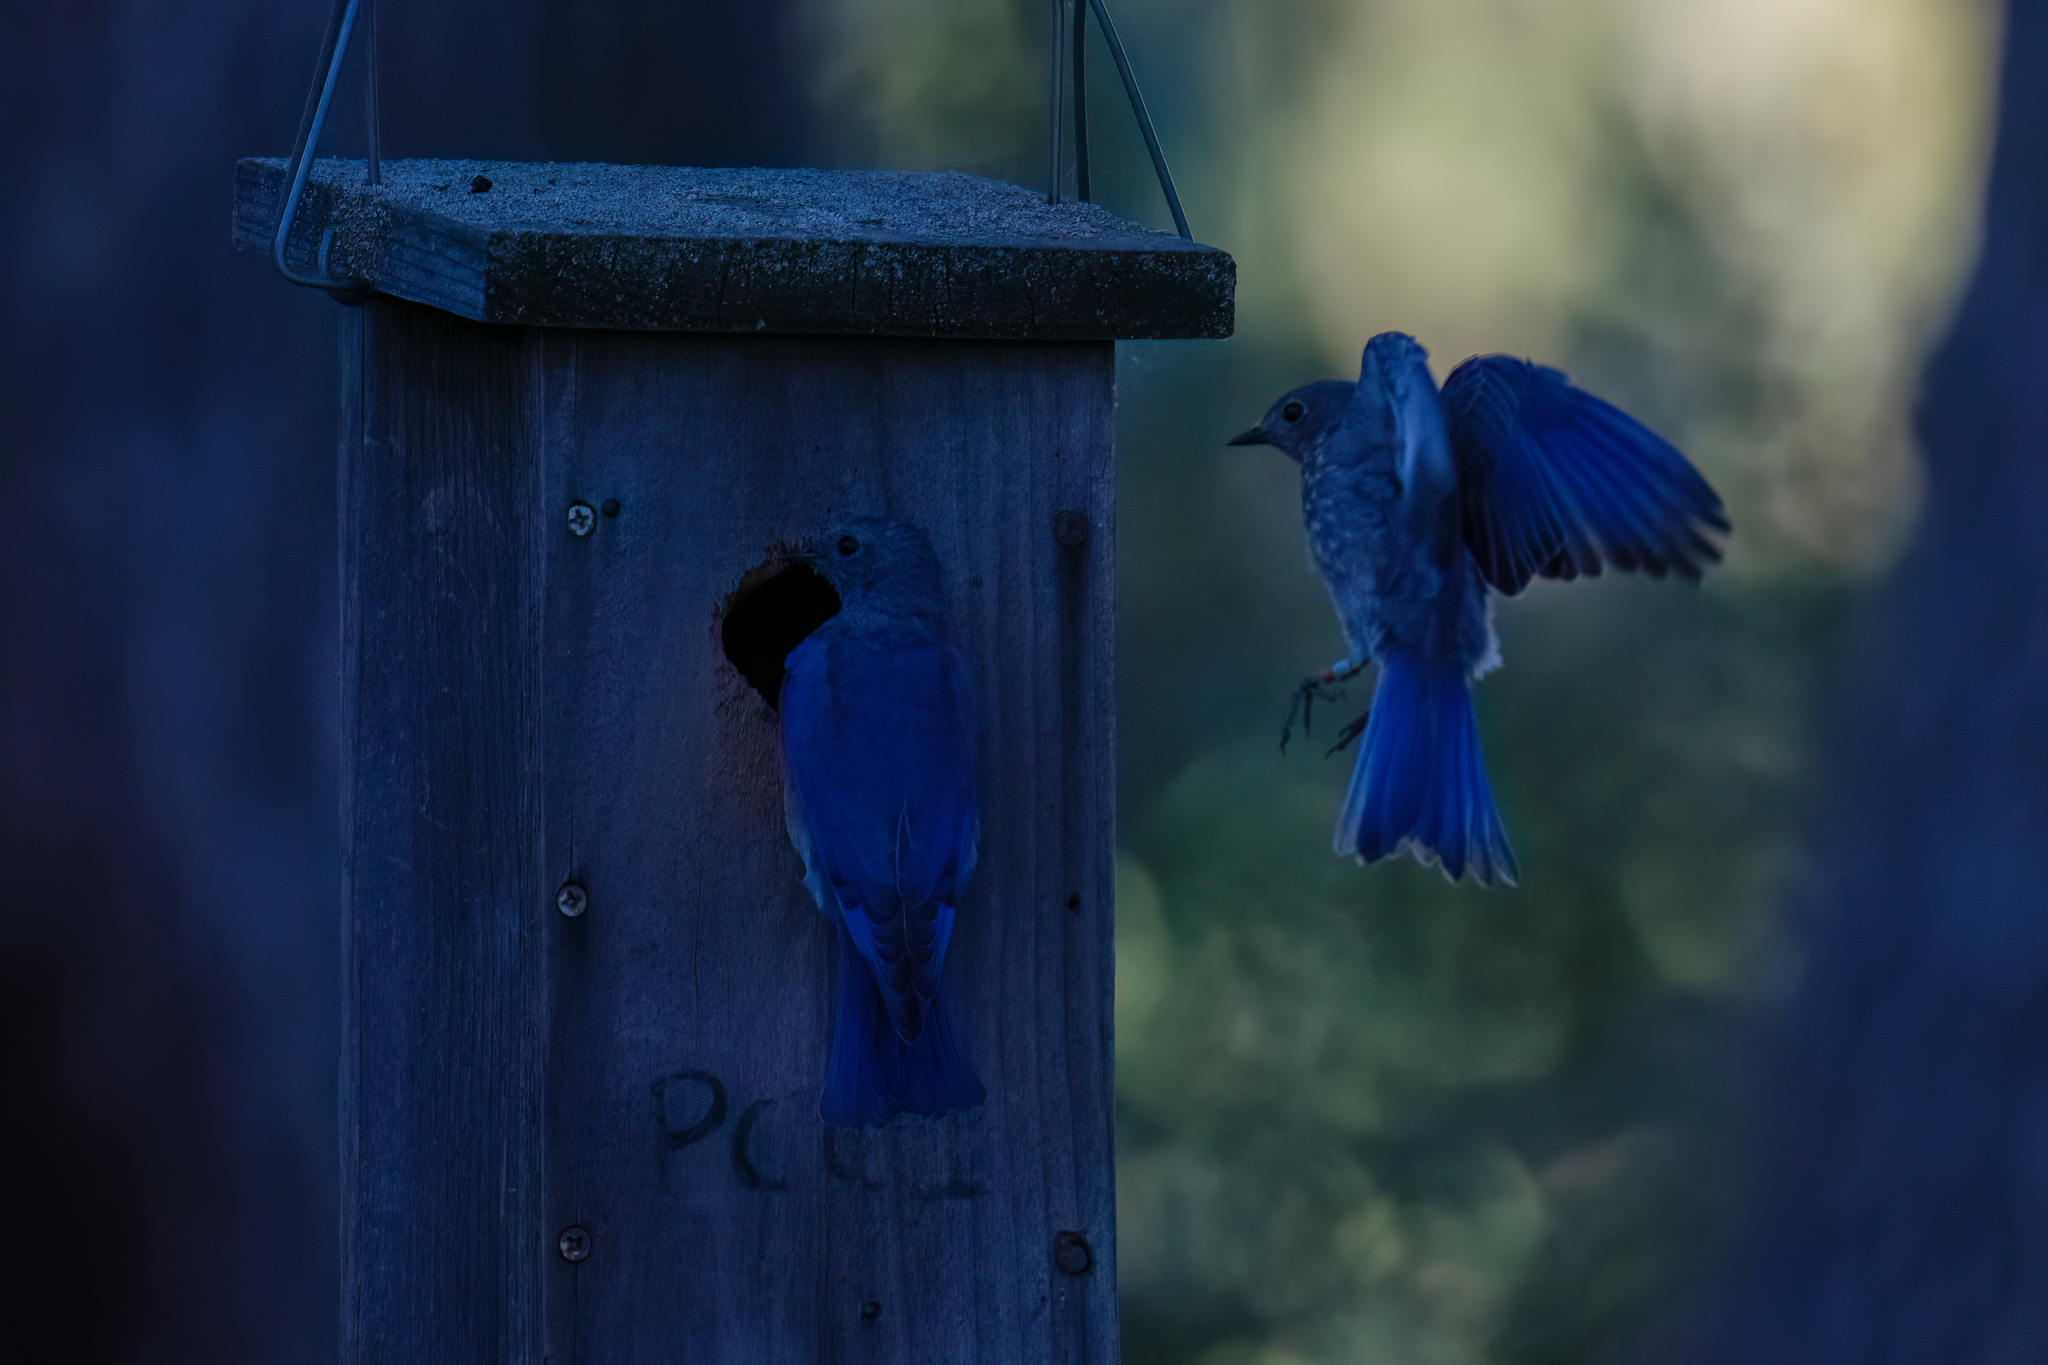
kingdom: Animalia
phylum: Chordata
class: Aves
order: Passeriformes
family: Turdidae
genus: Sialia
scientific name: Sialia mexicana
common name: Western bluebird
